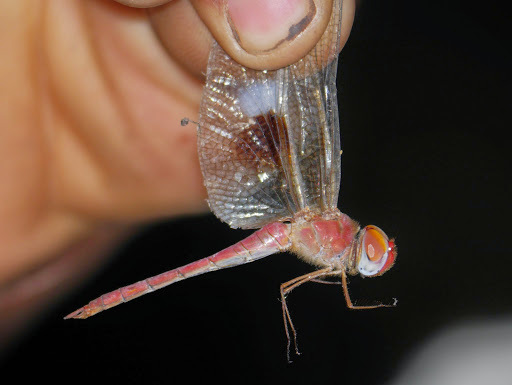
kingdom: Animalia
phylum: Arthropoda
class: Insecta
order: Odonata
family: Libellulidae
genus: Tholymis
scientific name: Tholymis tillarga
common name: Coral-tailed cloud wing
